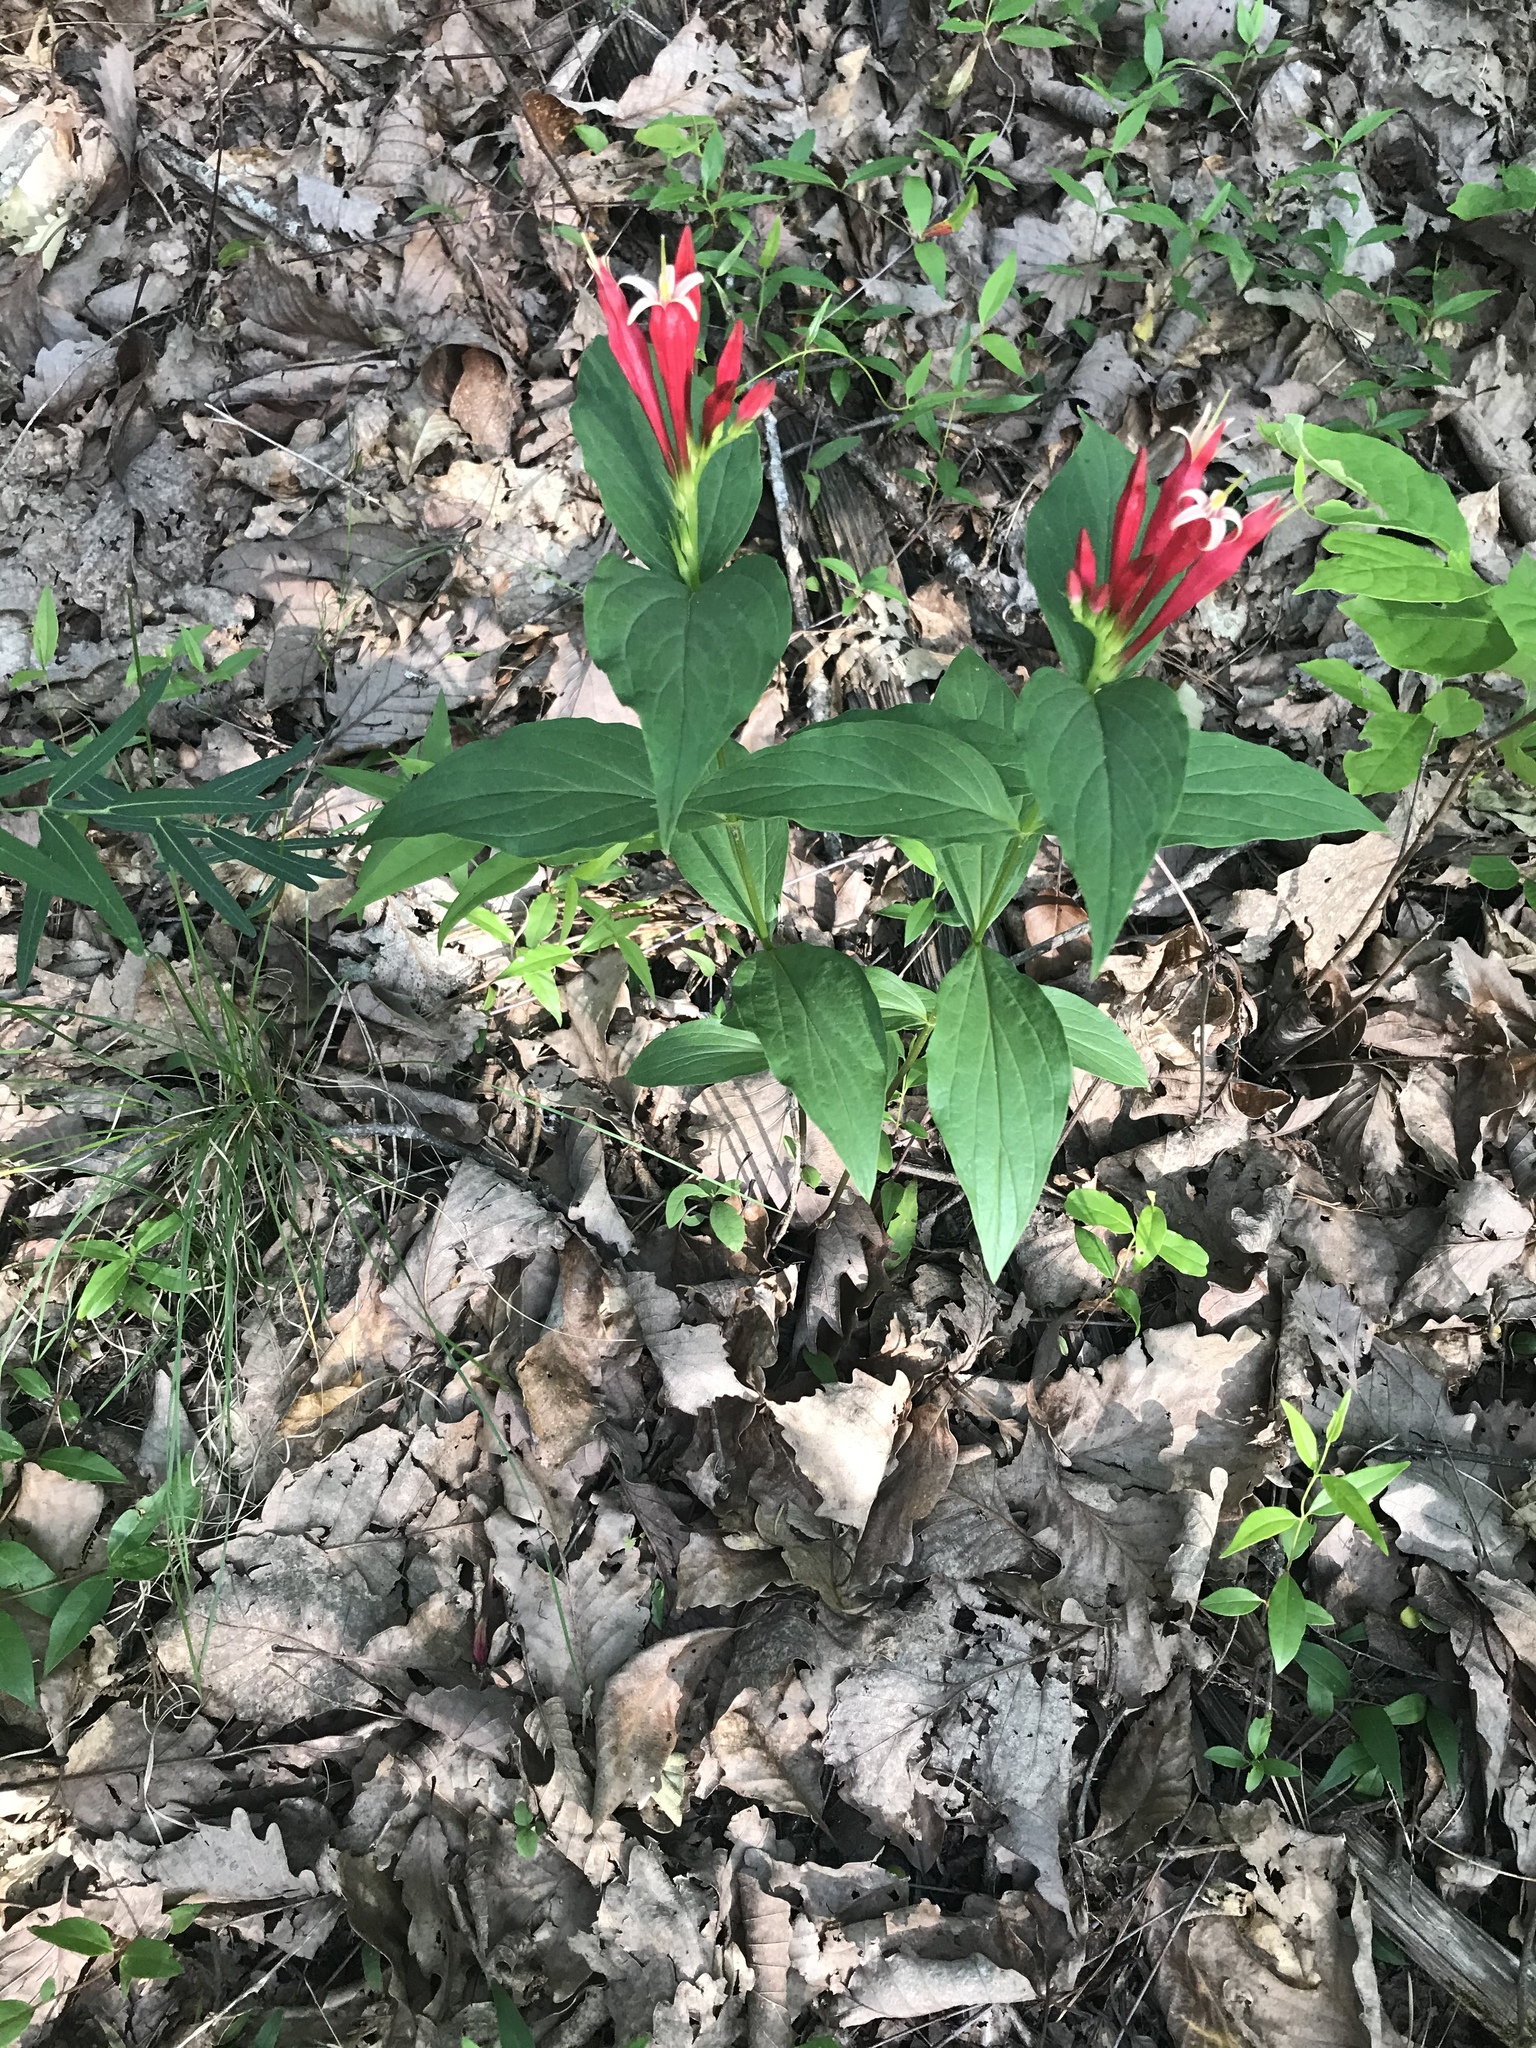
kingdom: Plantae
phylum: Tracheophyta
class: Magnoliopsida
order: Gentianales
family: Loganiaceae
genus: Spigelia
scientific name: Spigelia marilandica
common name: Indian-pink
